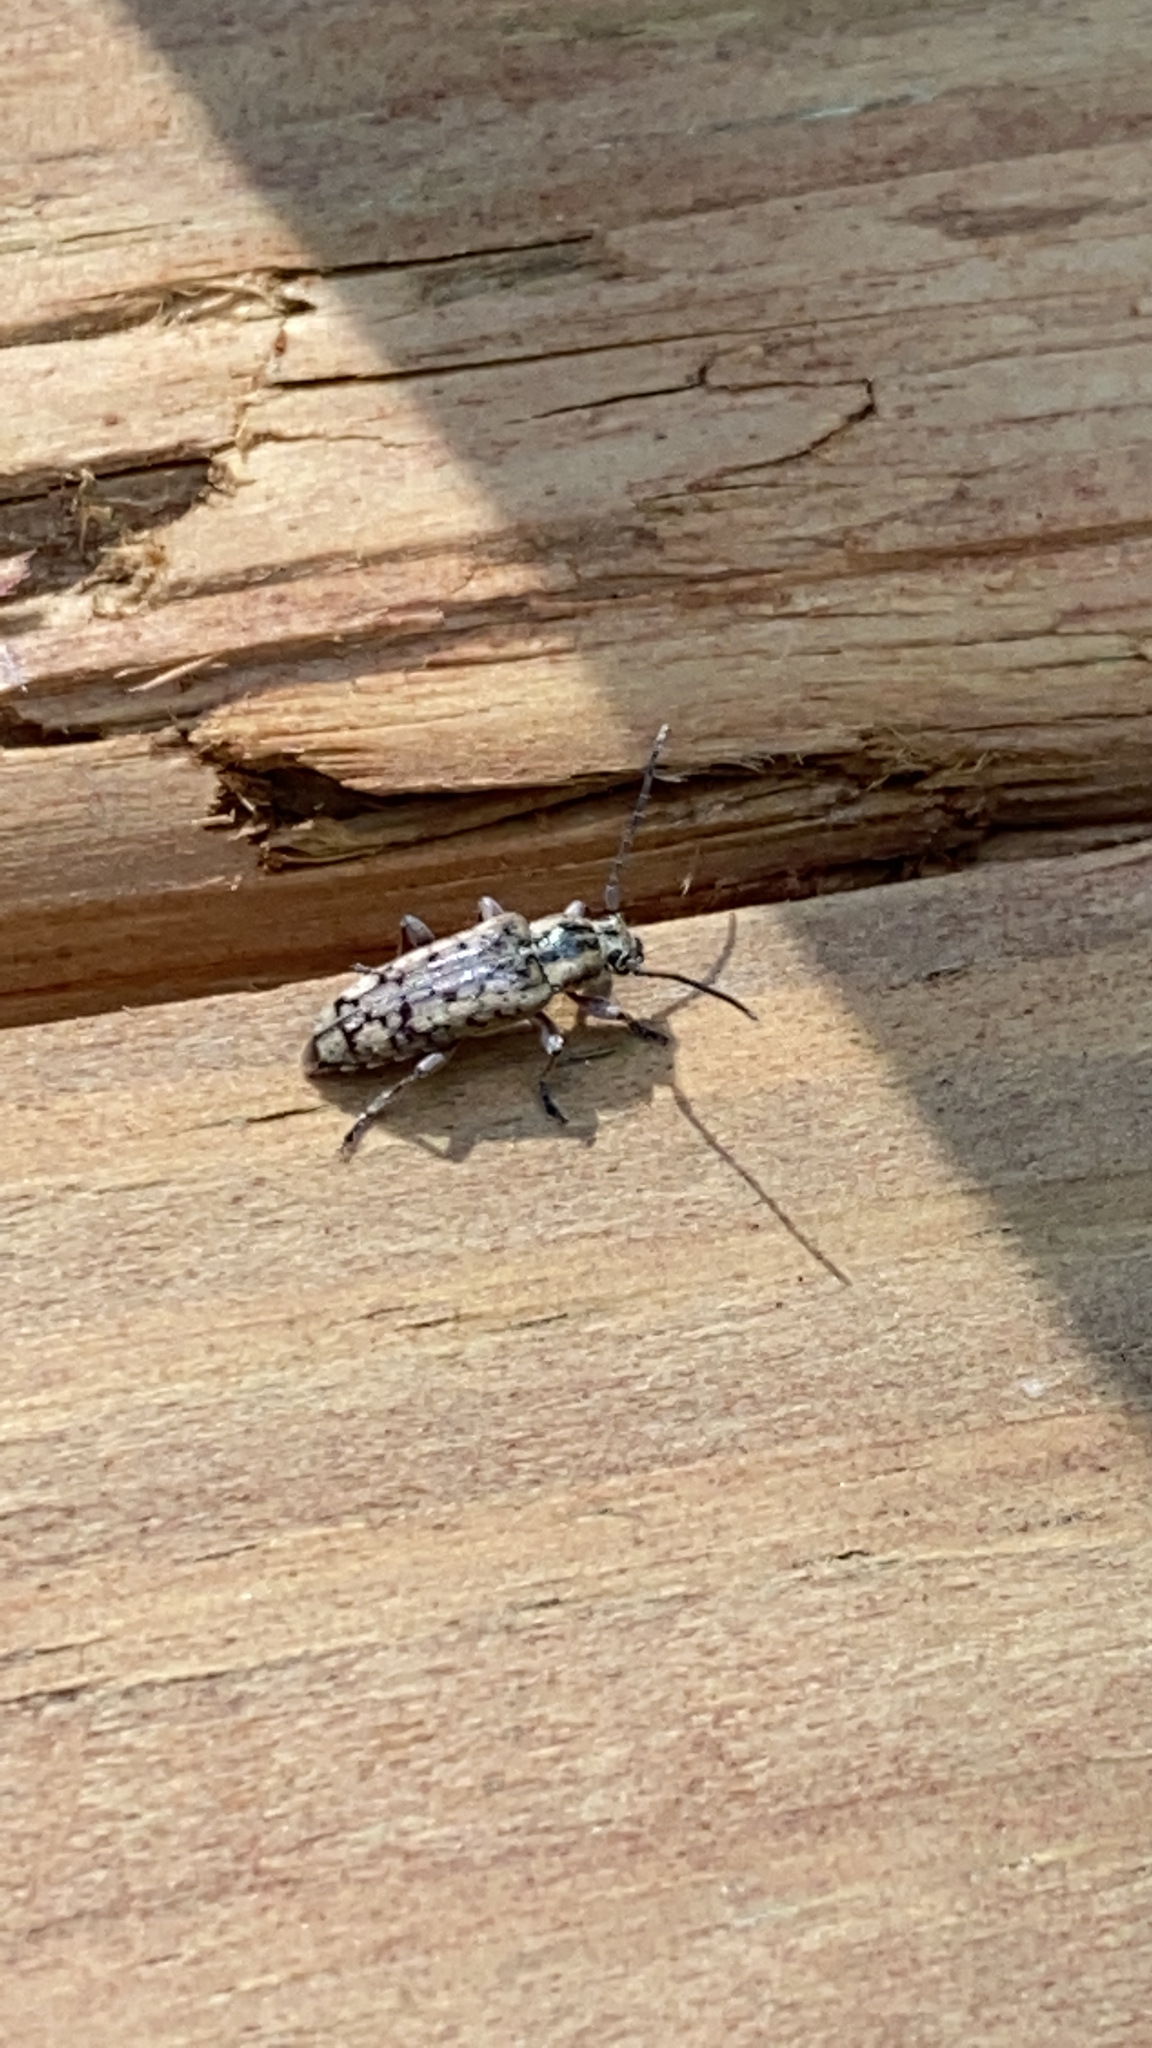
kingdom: Animalia
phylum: Arthropoda
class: Insecta
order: Coleoptera
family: Cerambycidae
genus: Atimia
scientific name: Atimia confusa
